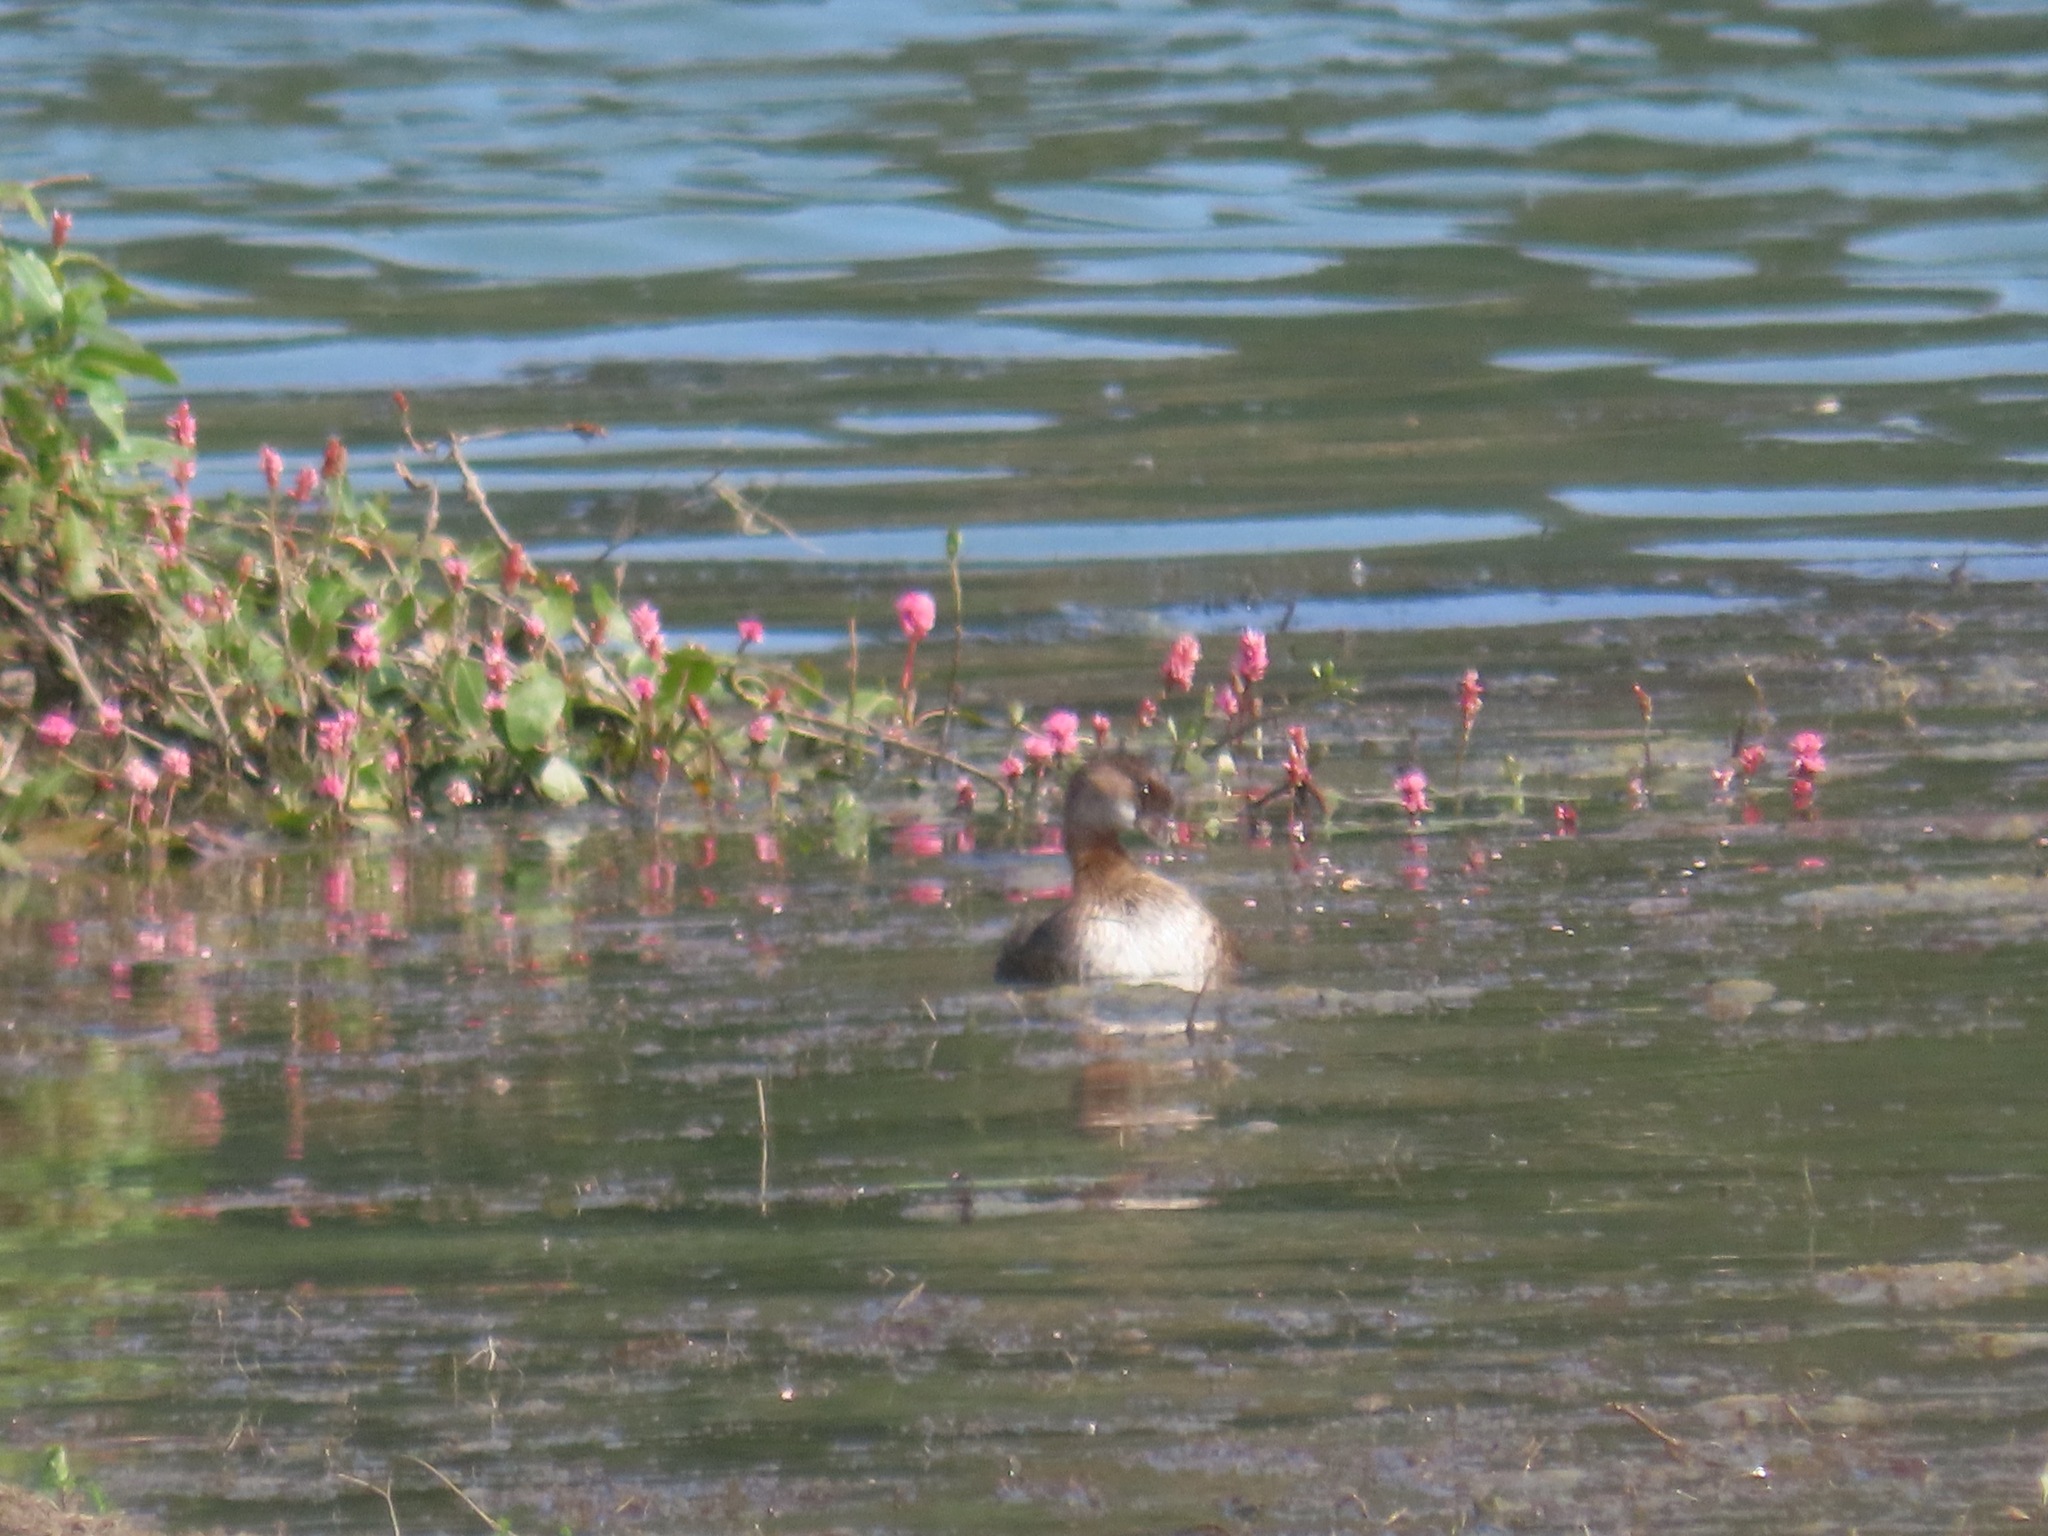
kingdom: Animalia
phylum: Chordata
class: Aves
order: Podicipediformes
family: Podicipedidae
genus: Podilymbus
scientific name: Podilymbus podiceps
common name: Pied-billed grebe
